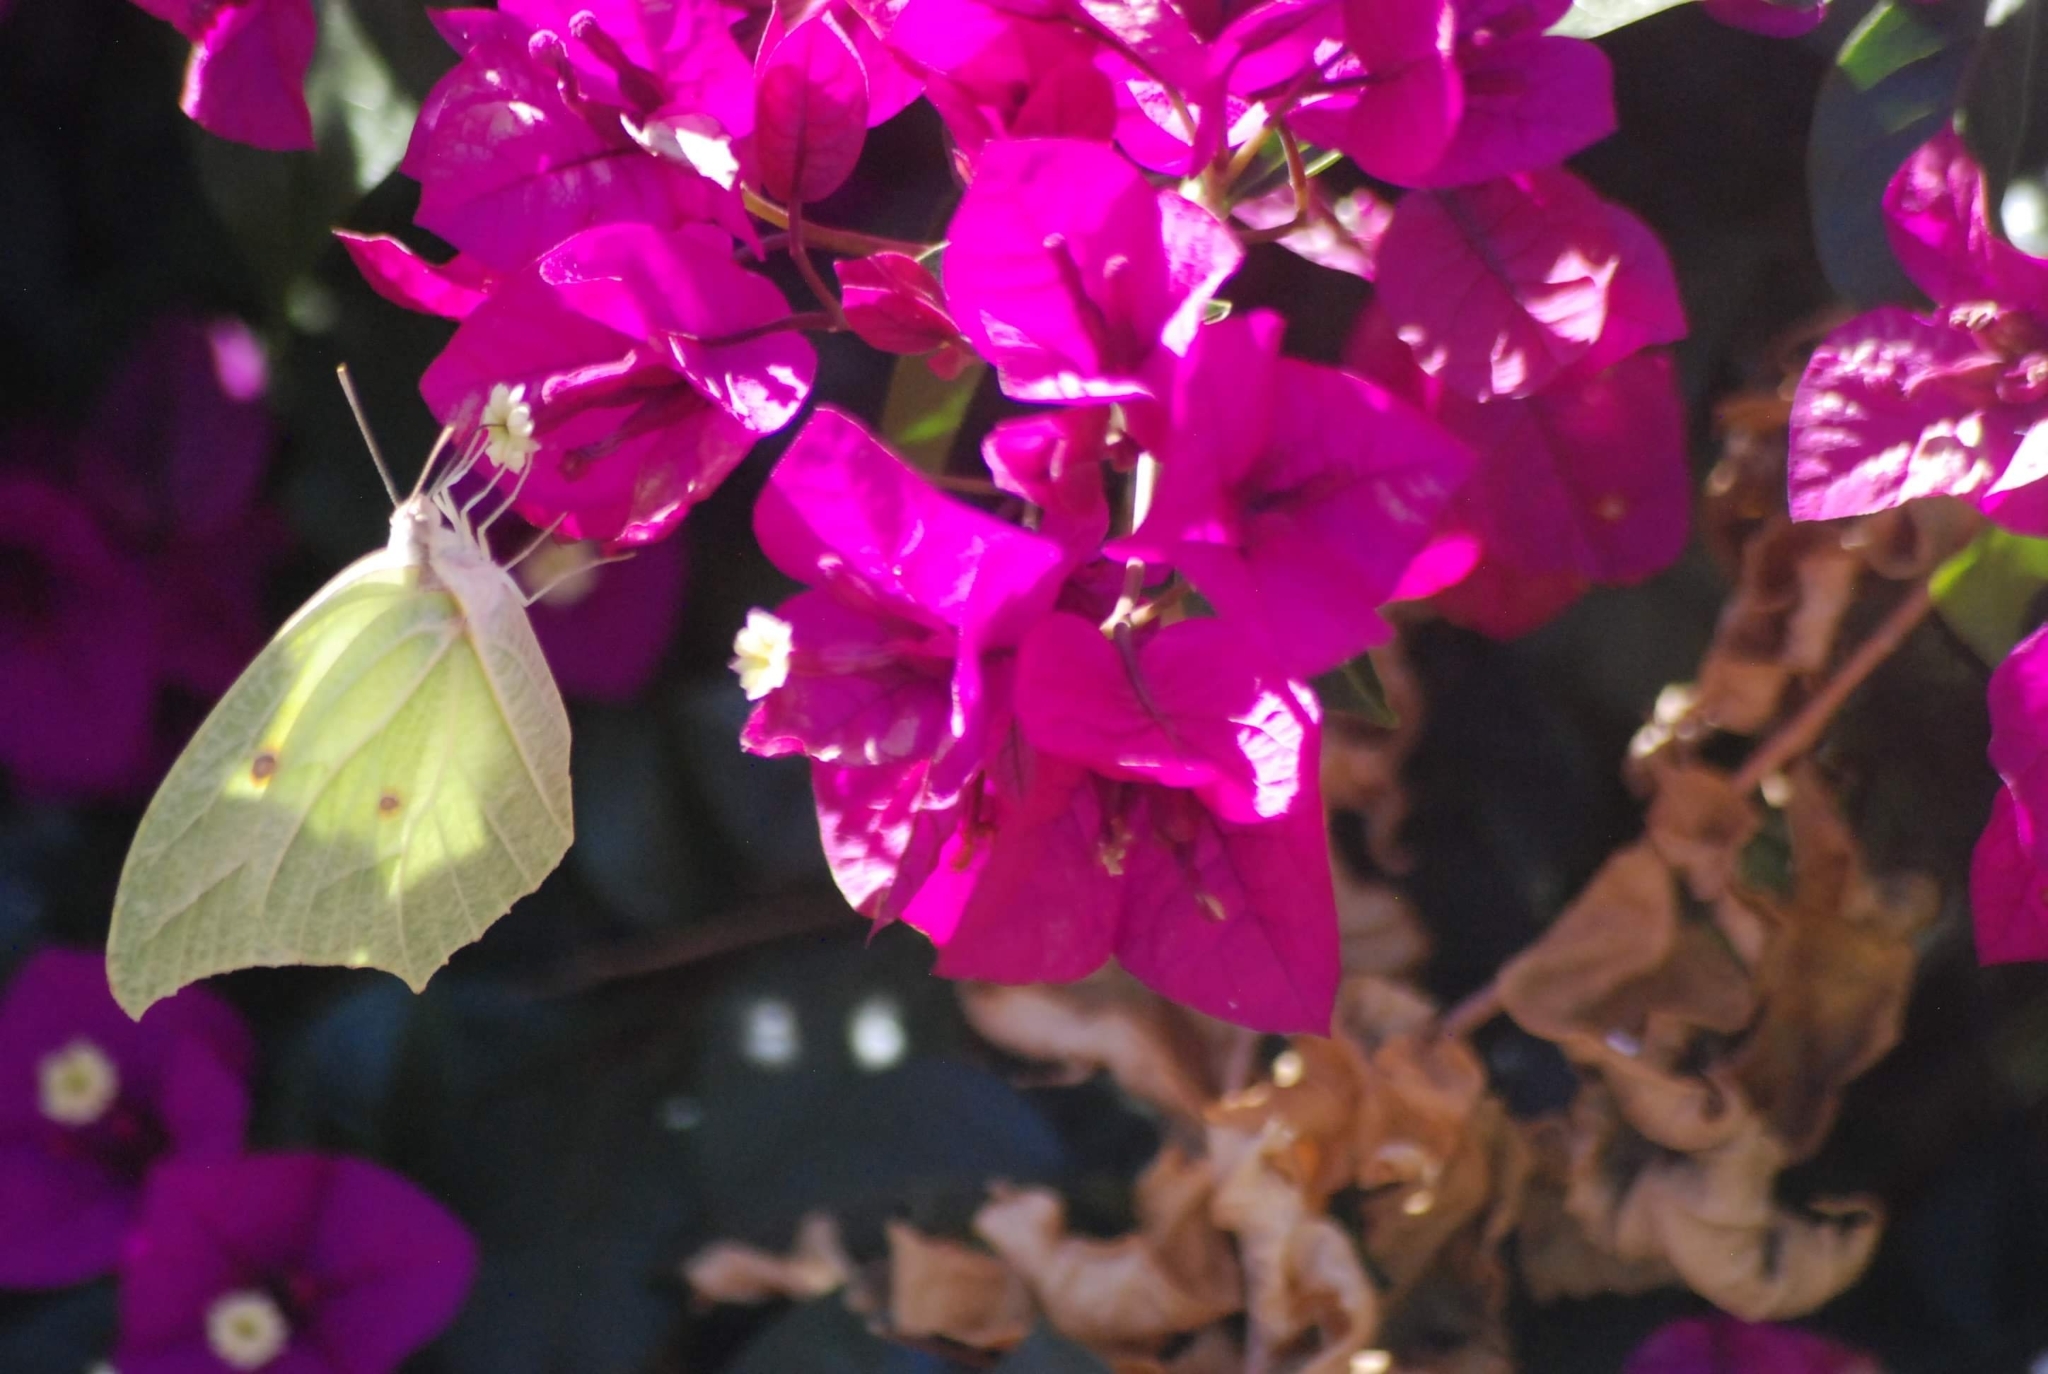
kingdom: Animalia
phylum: Arthropoda
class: Insecta
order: Lepidoptera
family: Pieridae
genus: Anteos
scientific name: Anteos clorinde
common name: White angled sulphur
